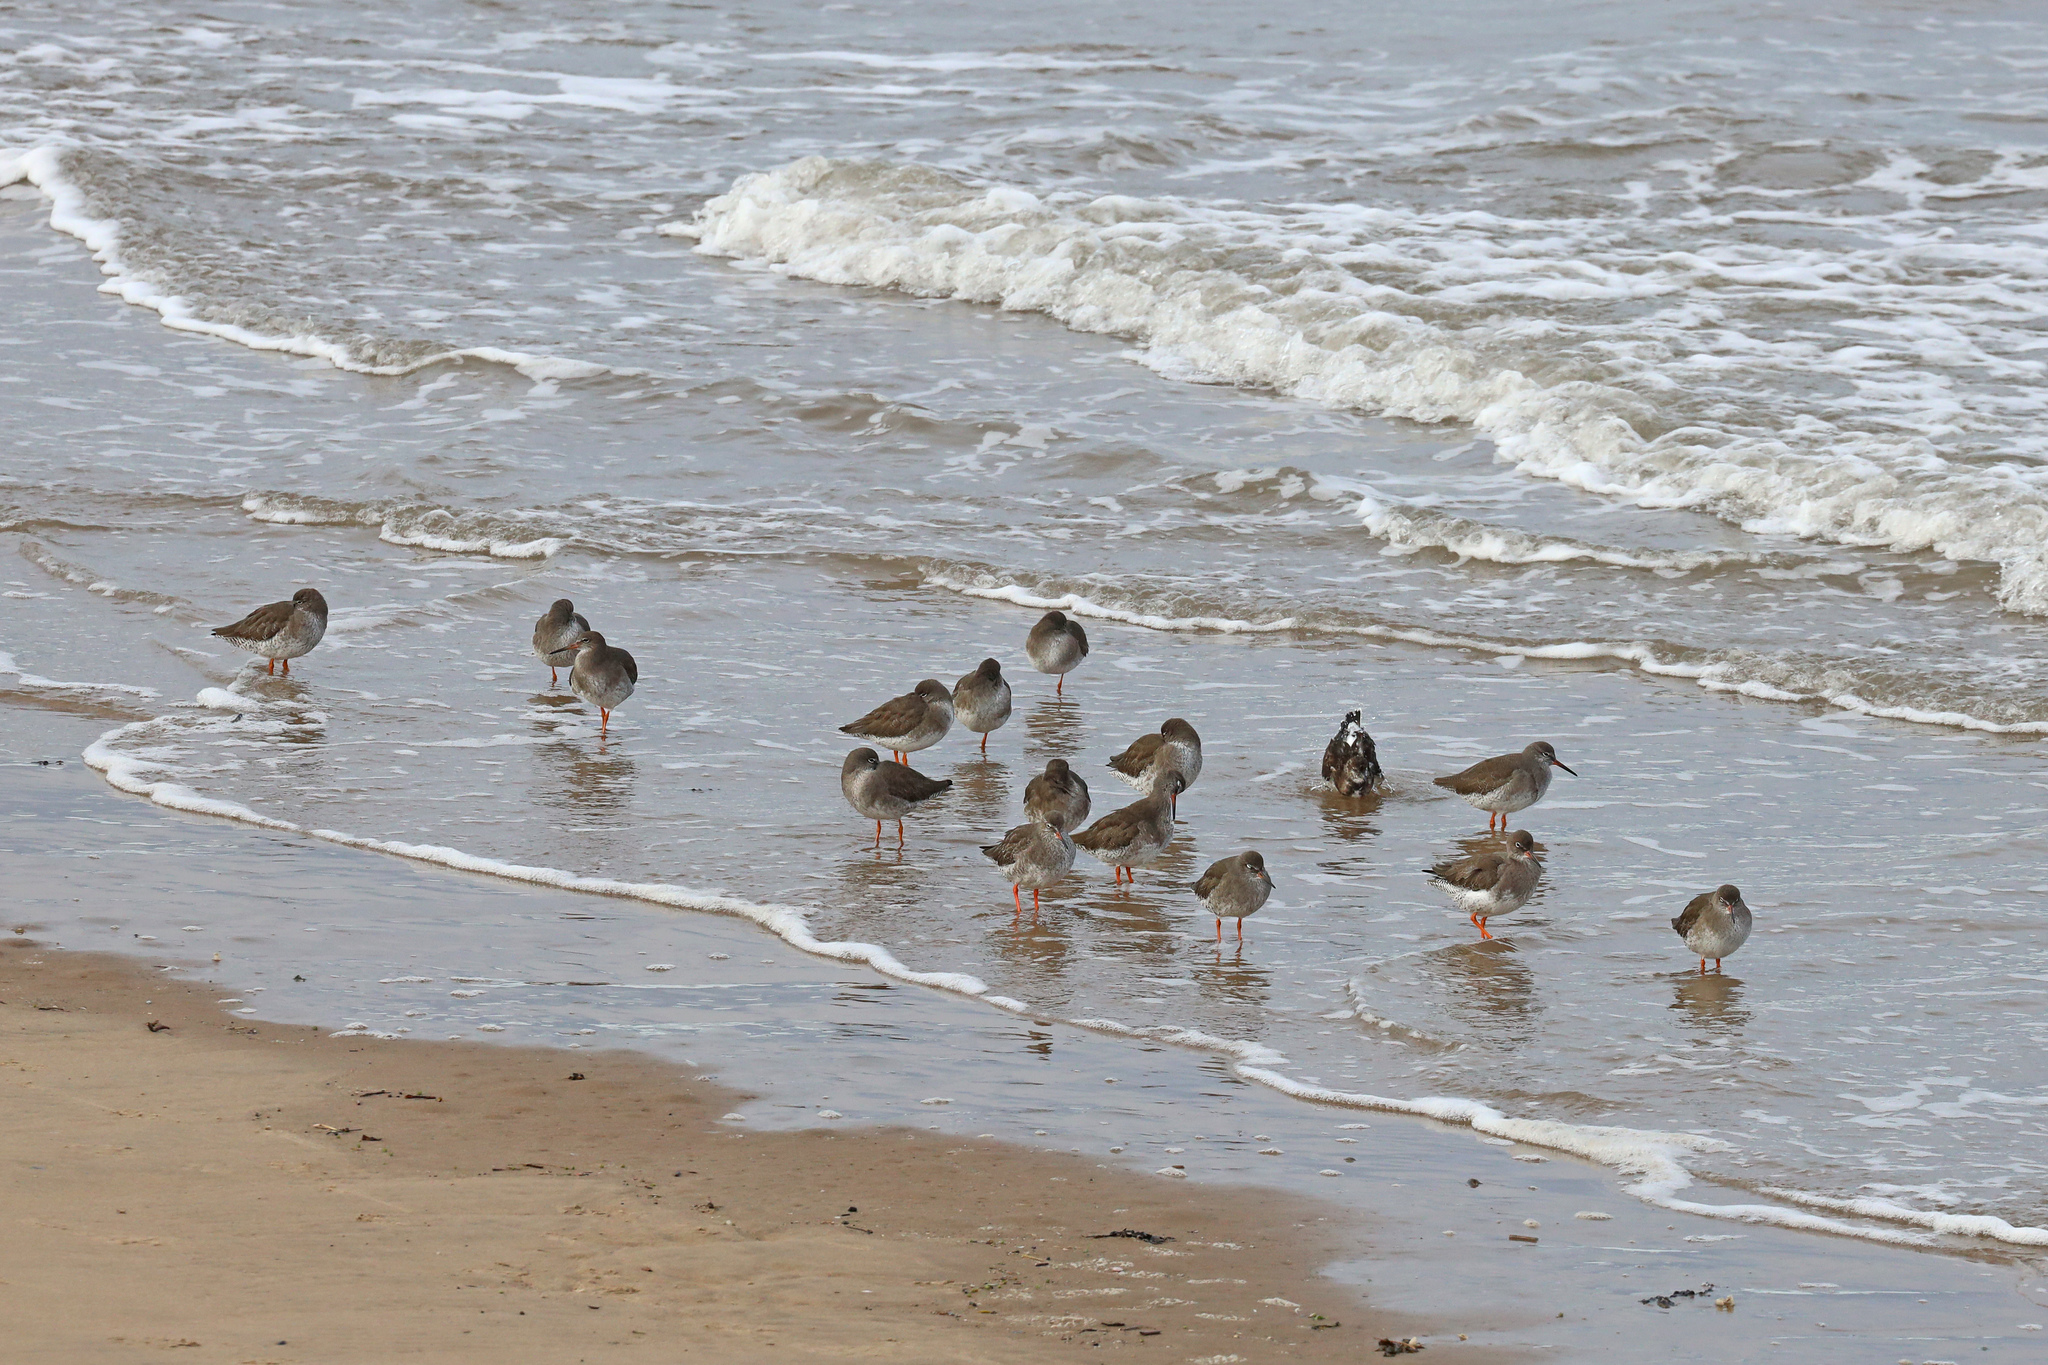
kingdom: Animalia
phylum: Chordata
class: Aves
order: Charadriiformes
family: Scolopacidae
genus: Tringa
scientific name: Tringa totanus
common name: Common redshank
